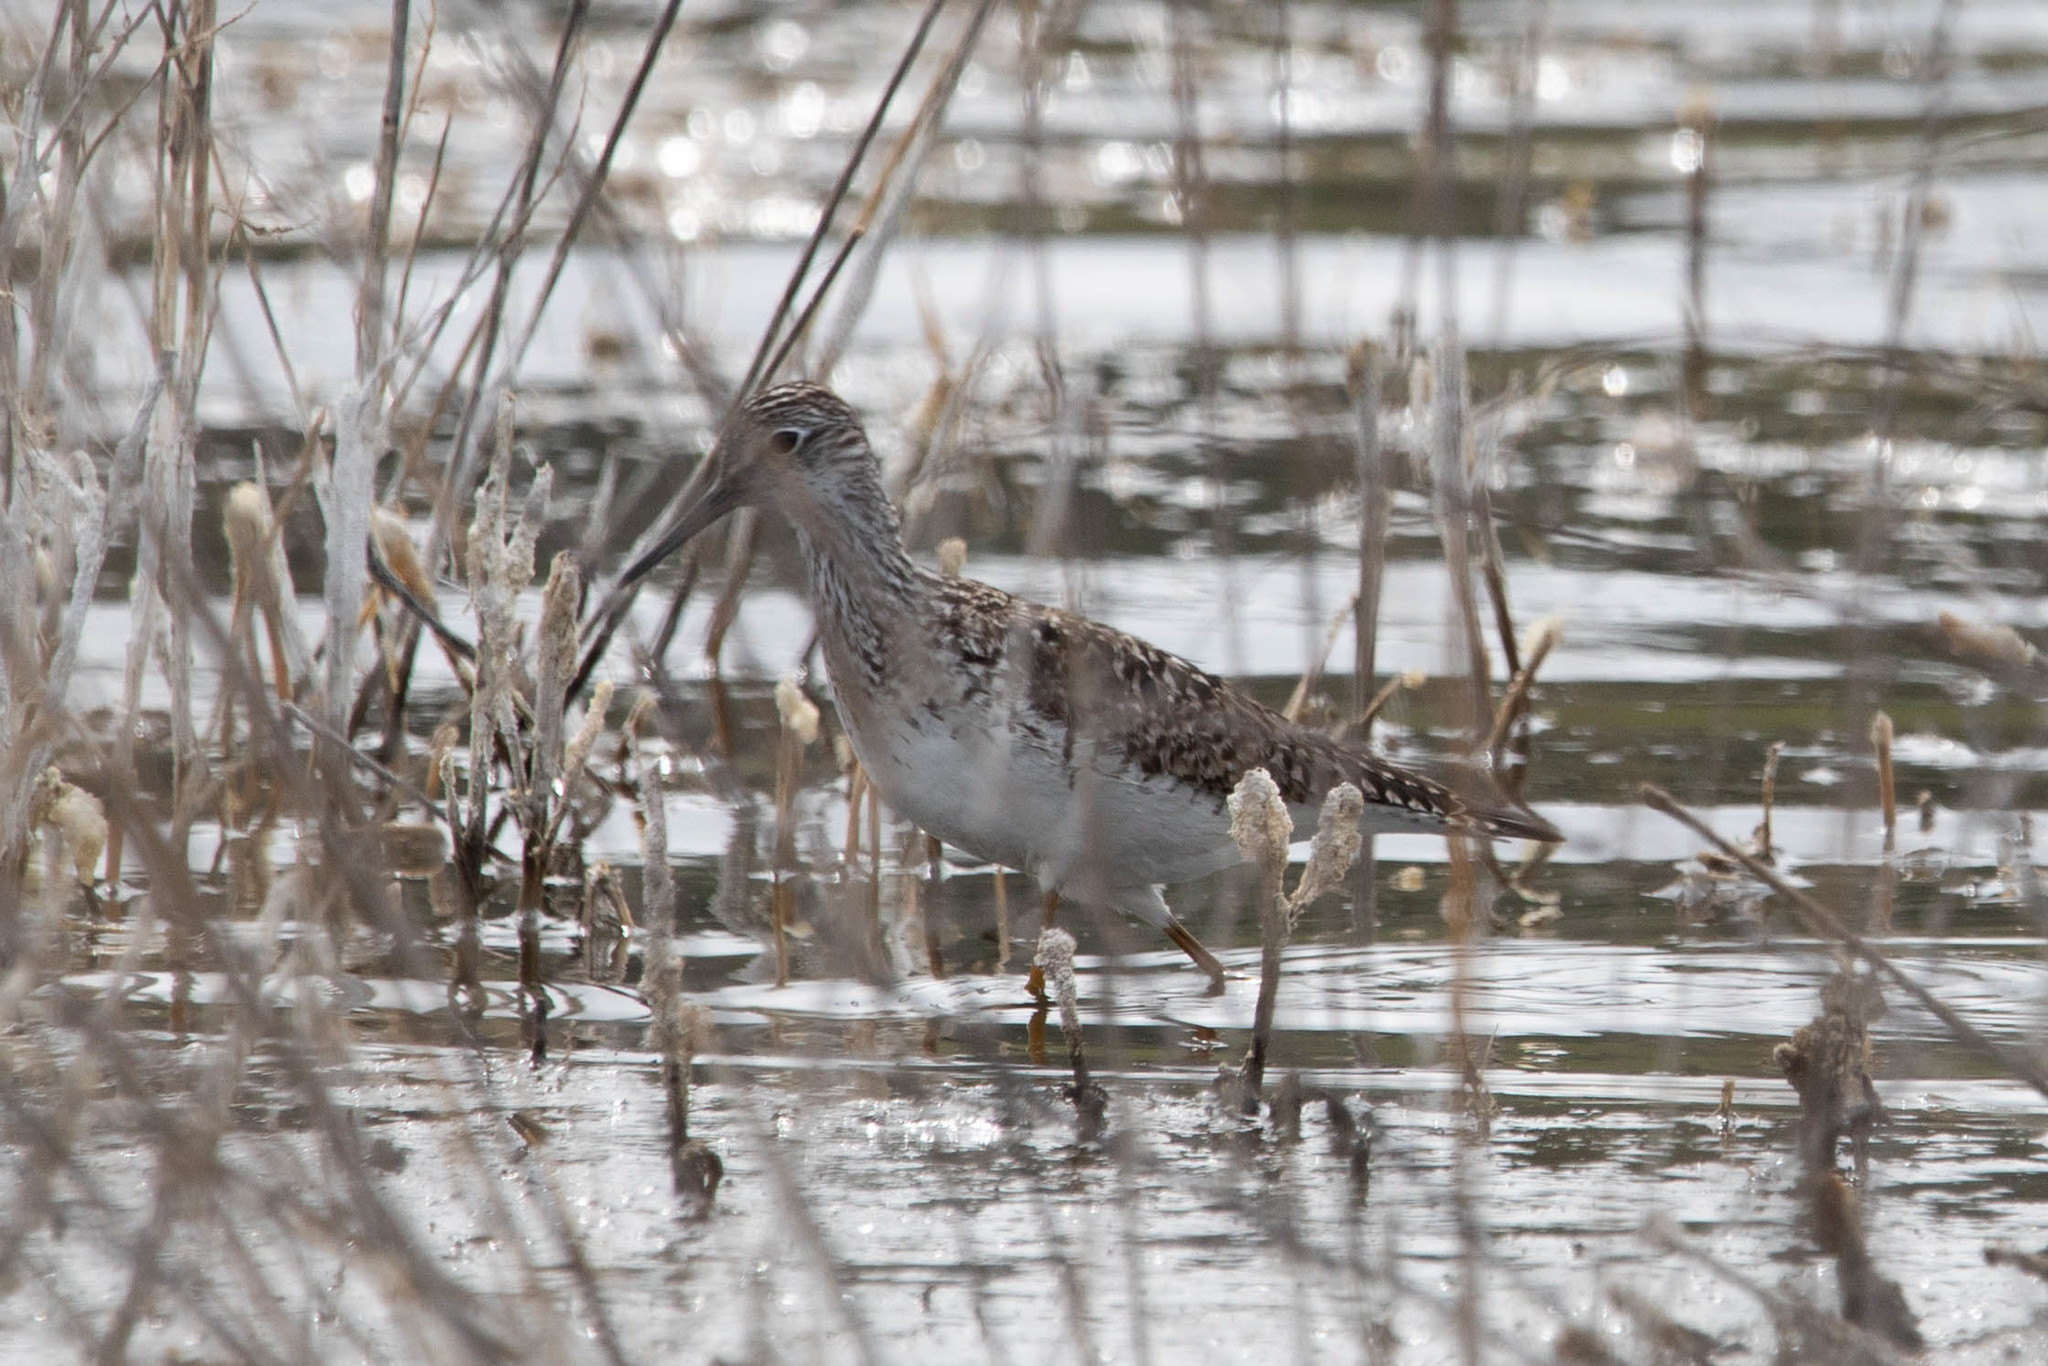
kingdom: Animalia
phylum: Chordata
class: Aves
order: Charadriiformes
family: Scolopacidae
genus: Tringa
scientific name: Tringa flavipes
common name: Lesser yellowlegs
